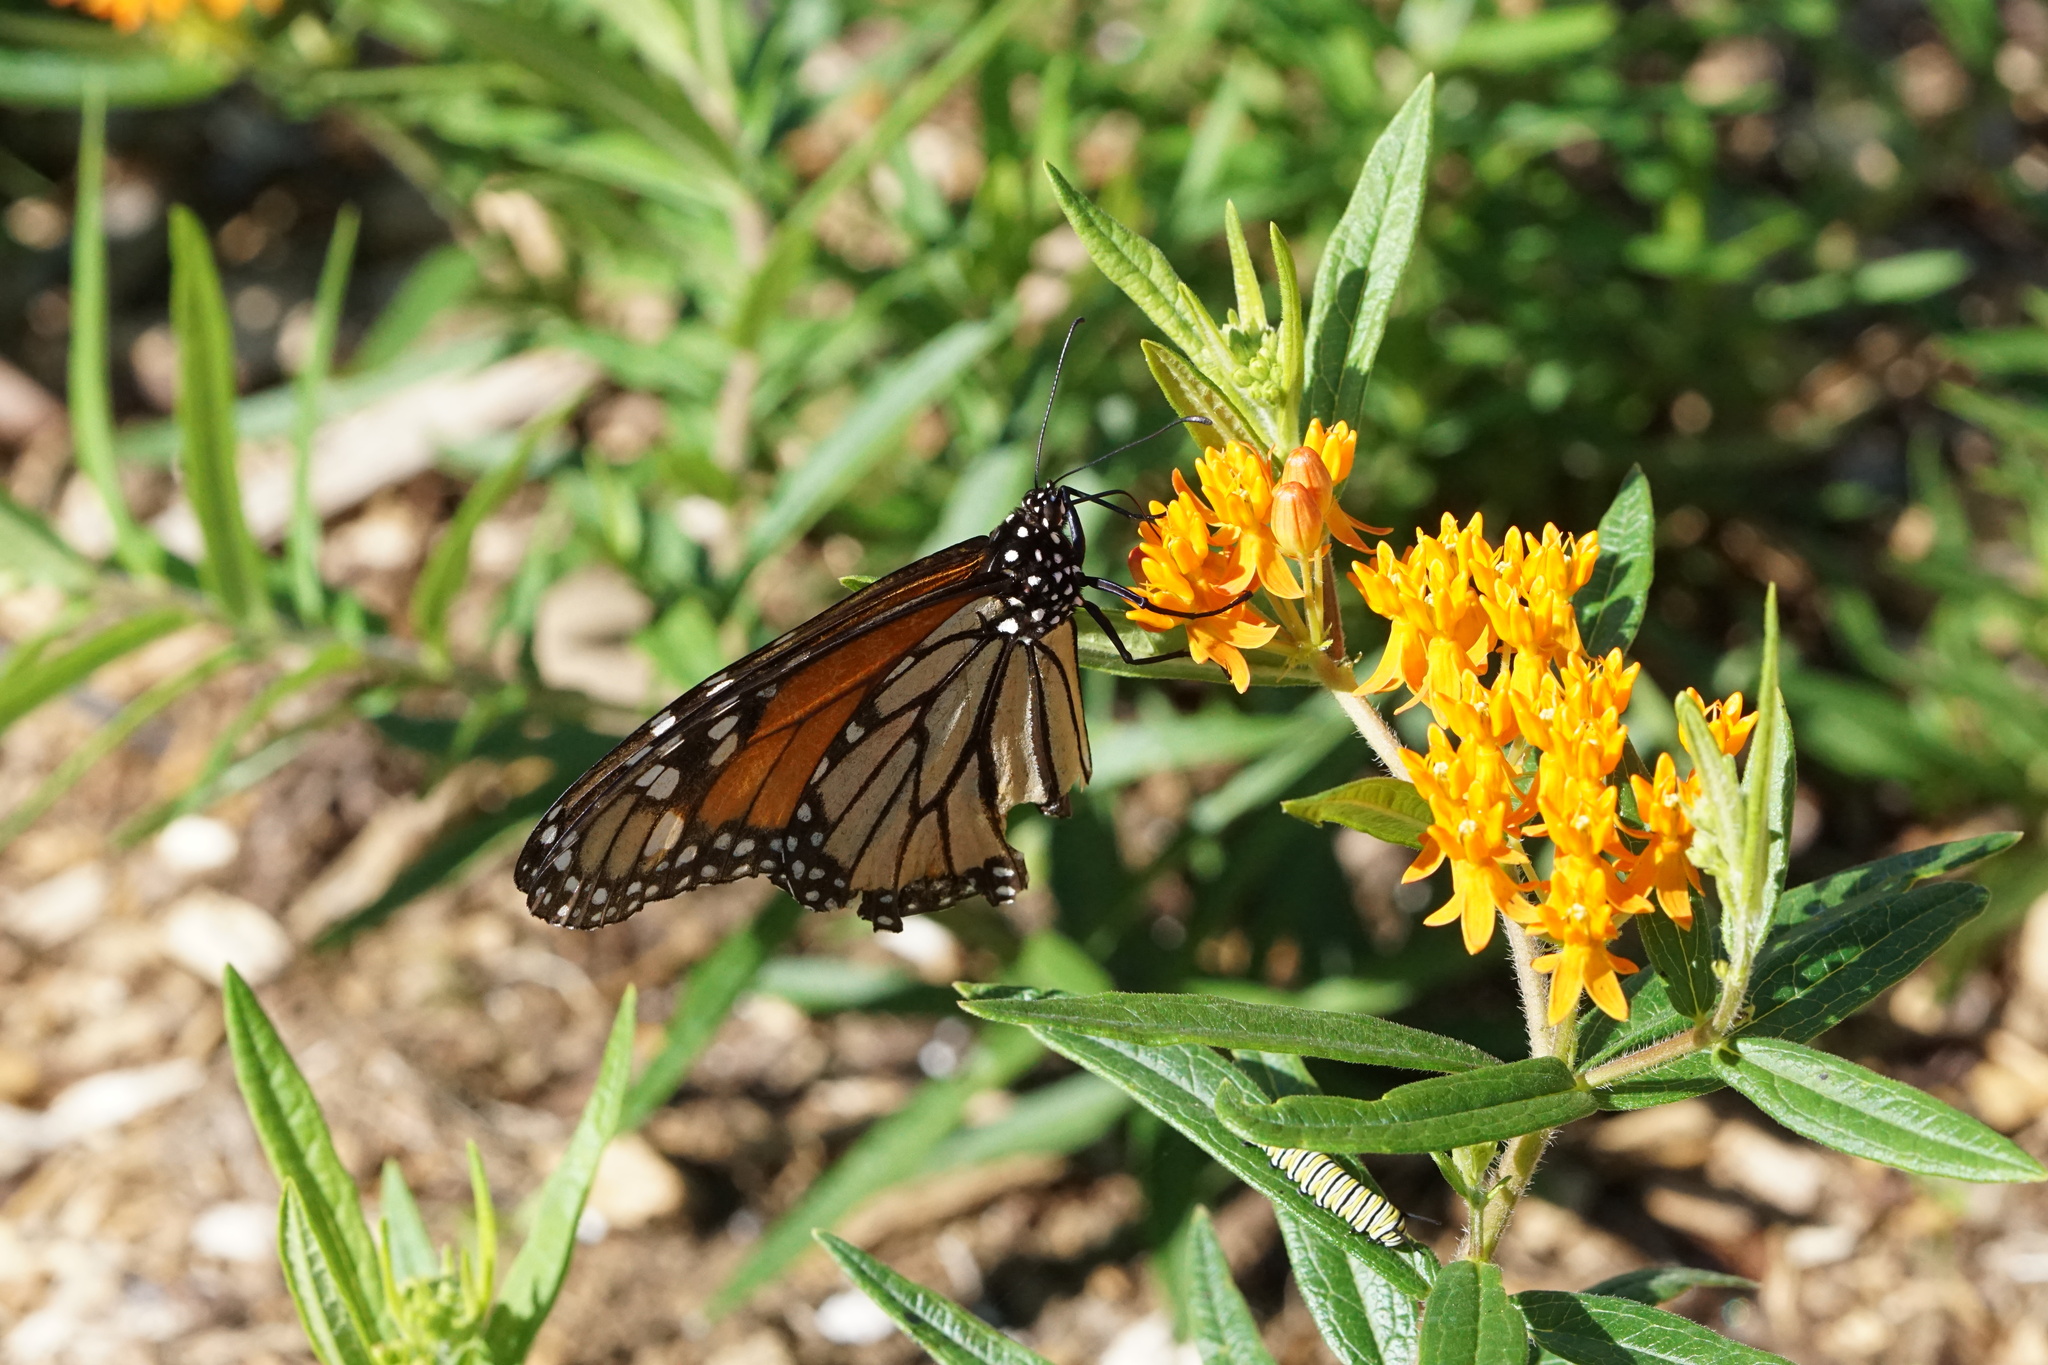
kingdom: Animalia
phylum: Arthropoda
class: Insecta
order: Lepidoptera
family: Nymphalidae
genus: Danaus
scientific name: Danaus plexippus
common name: Monarch
